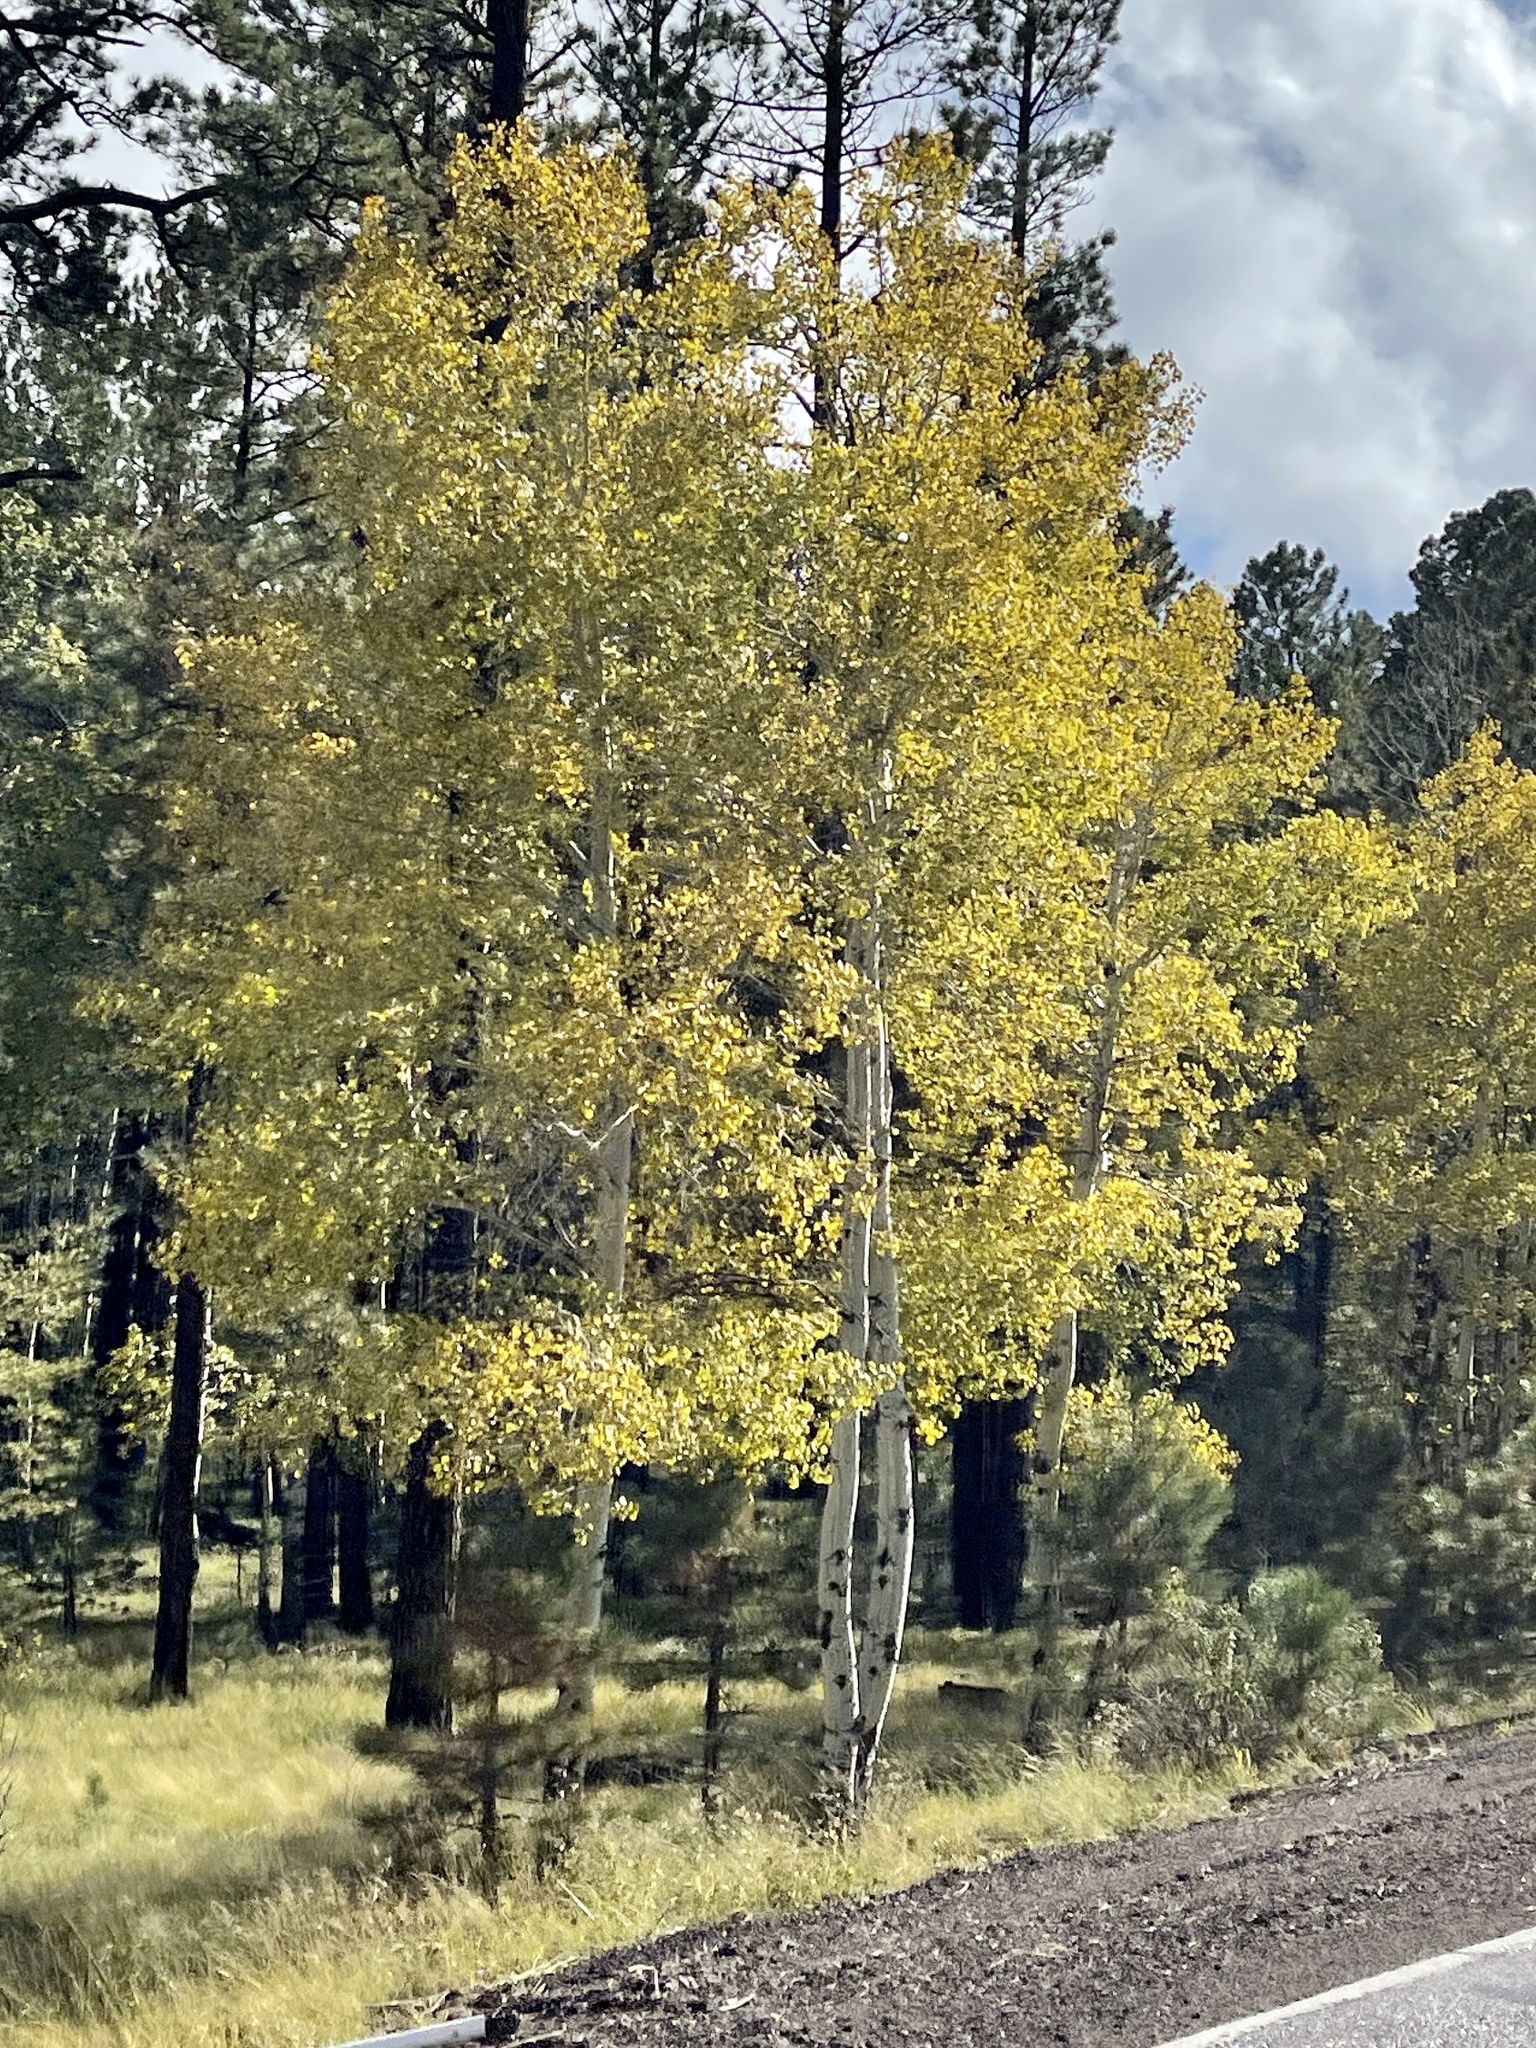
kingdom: Plantae
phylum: Tracheophyta
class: Magnoliopsida
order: Malpighiales
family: Salicaceae
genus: Populus
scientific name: Populus tremuloides
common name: Quaking aspen
